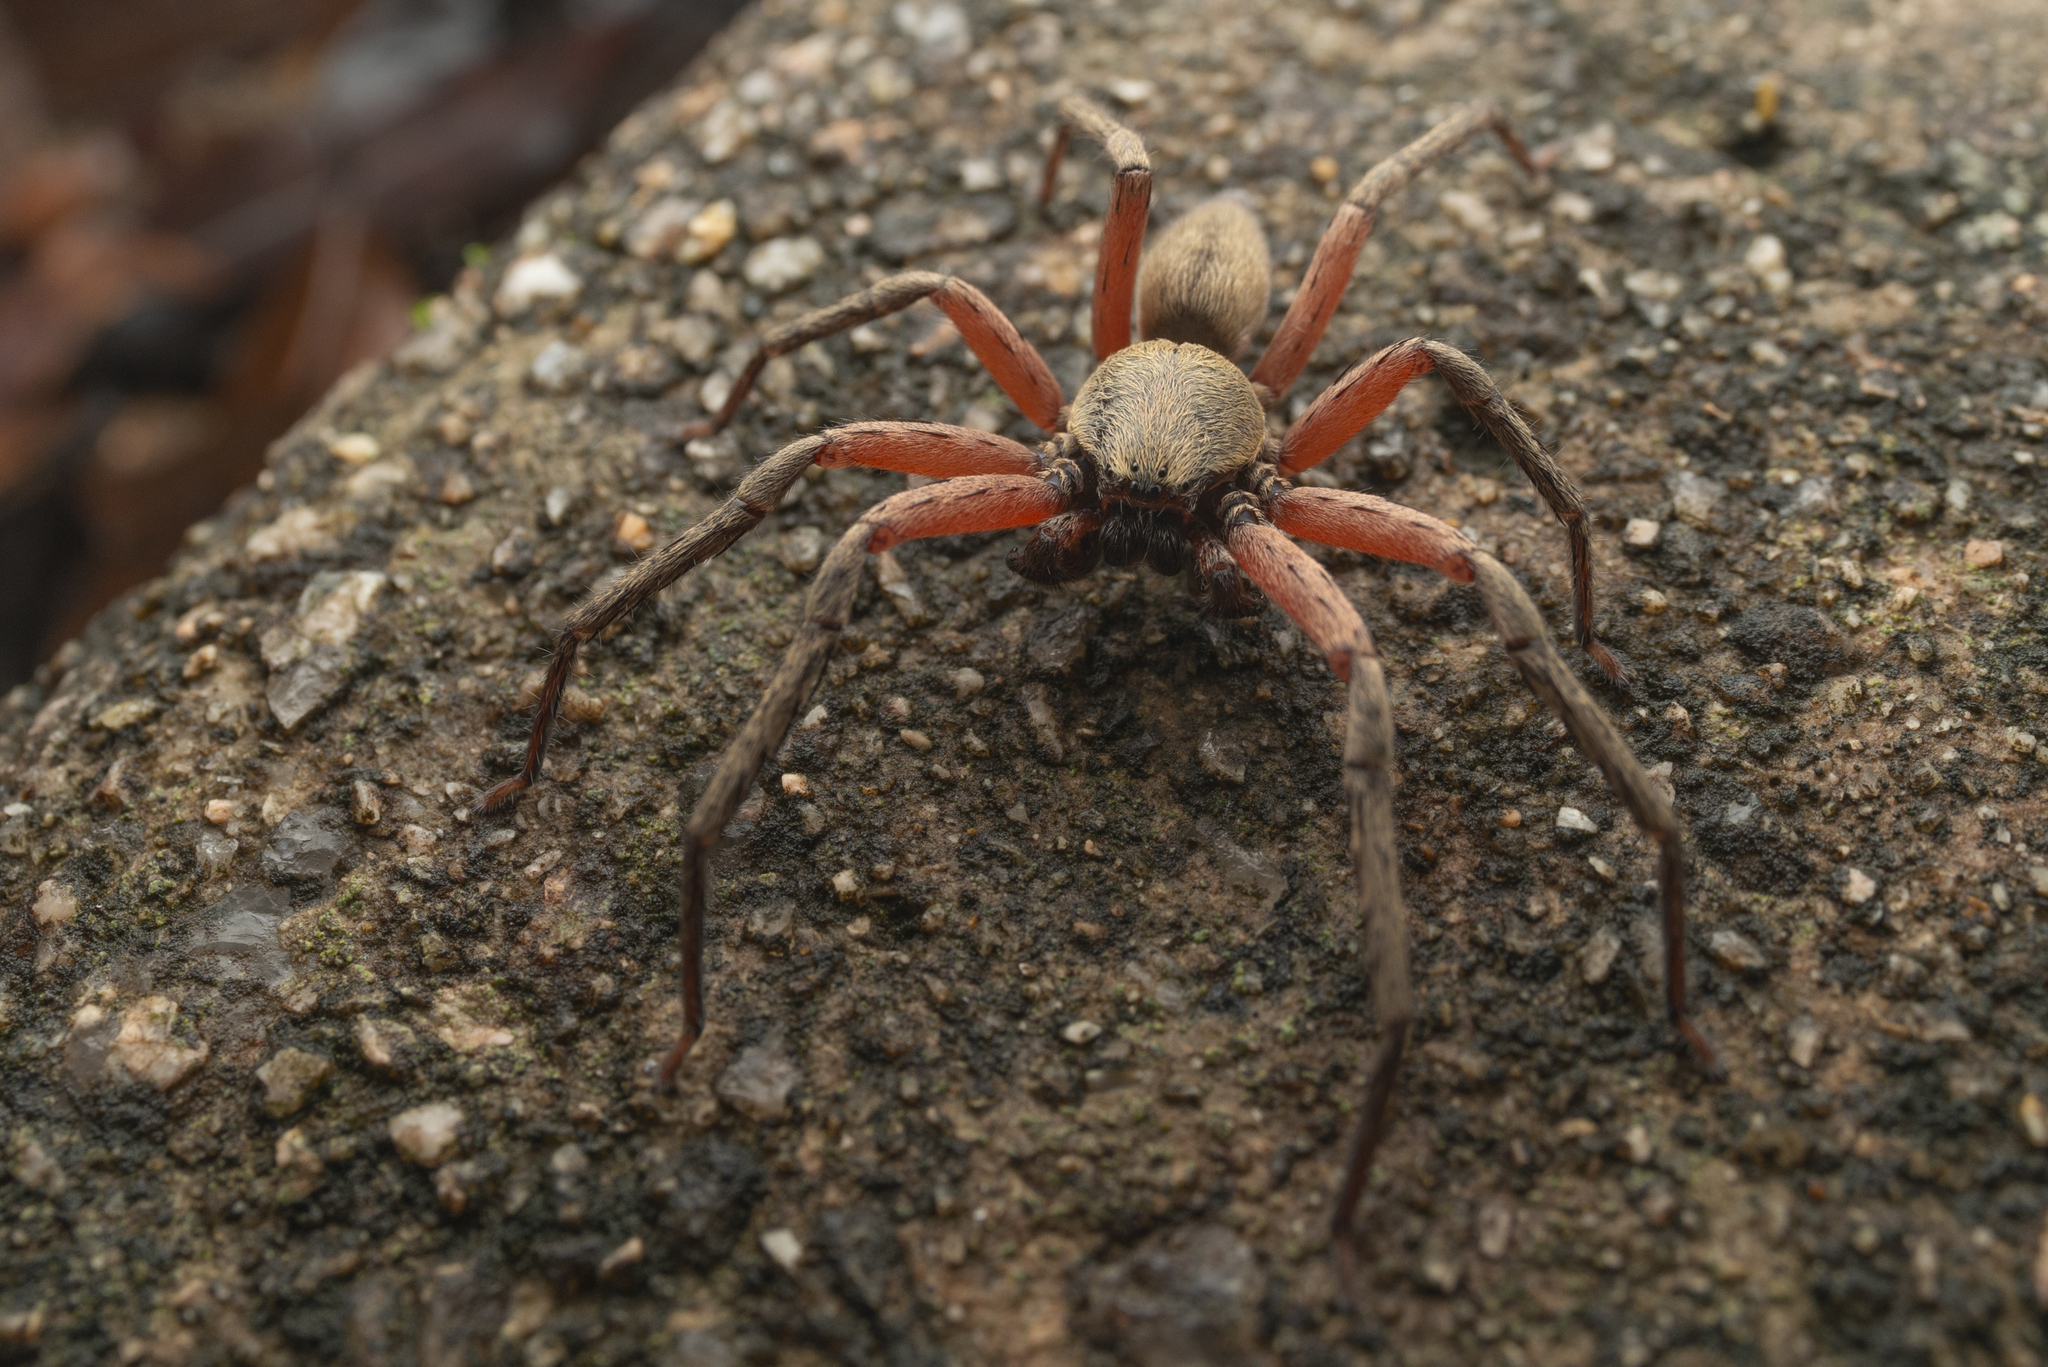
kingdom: Animalia
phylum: Arthropoda
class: Arachnida
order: Araneae
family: Sparassidae
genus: Thelcticopis
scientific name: Thelcticopis severa
